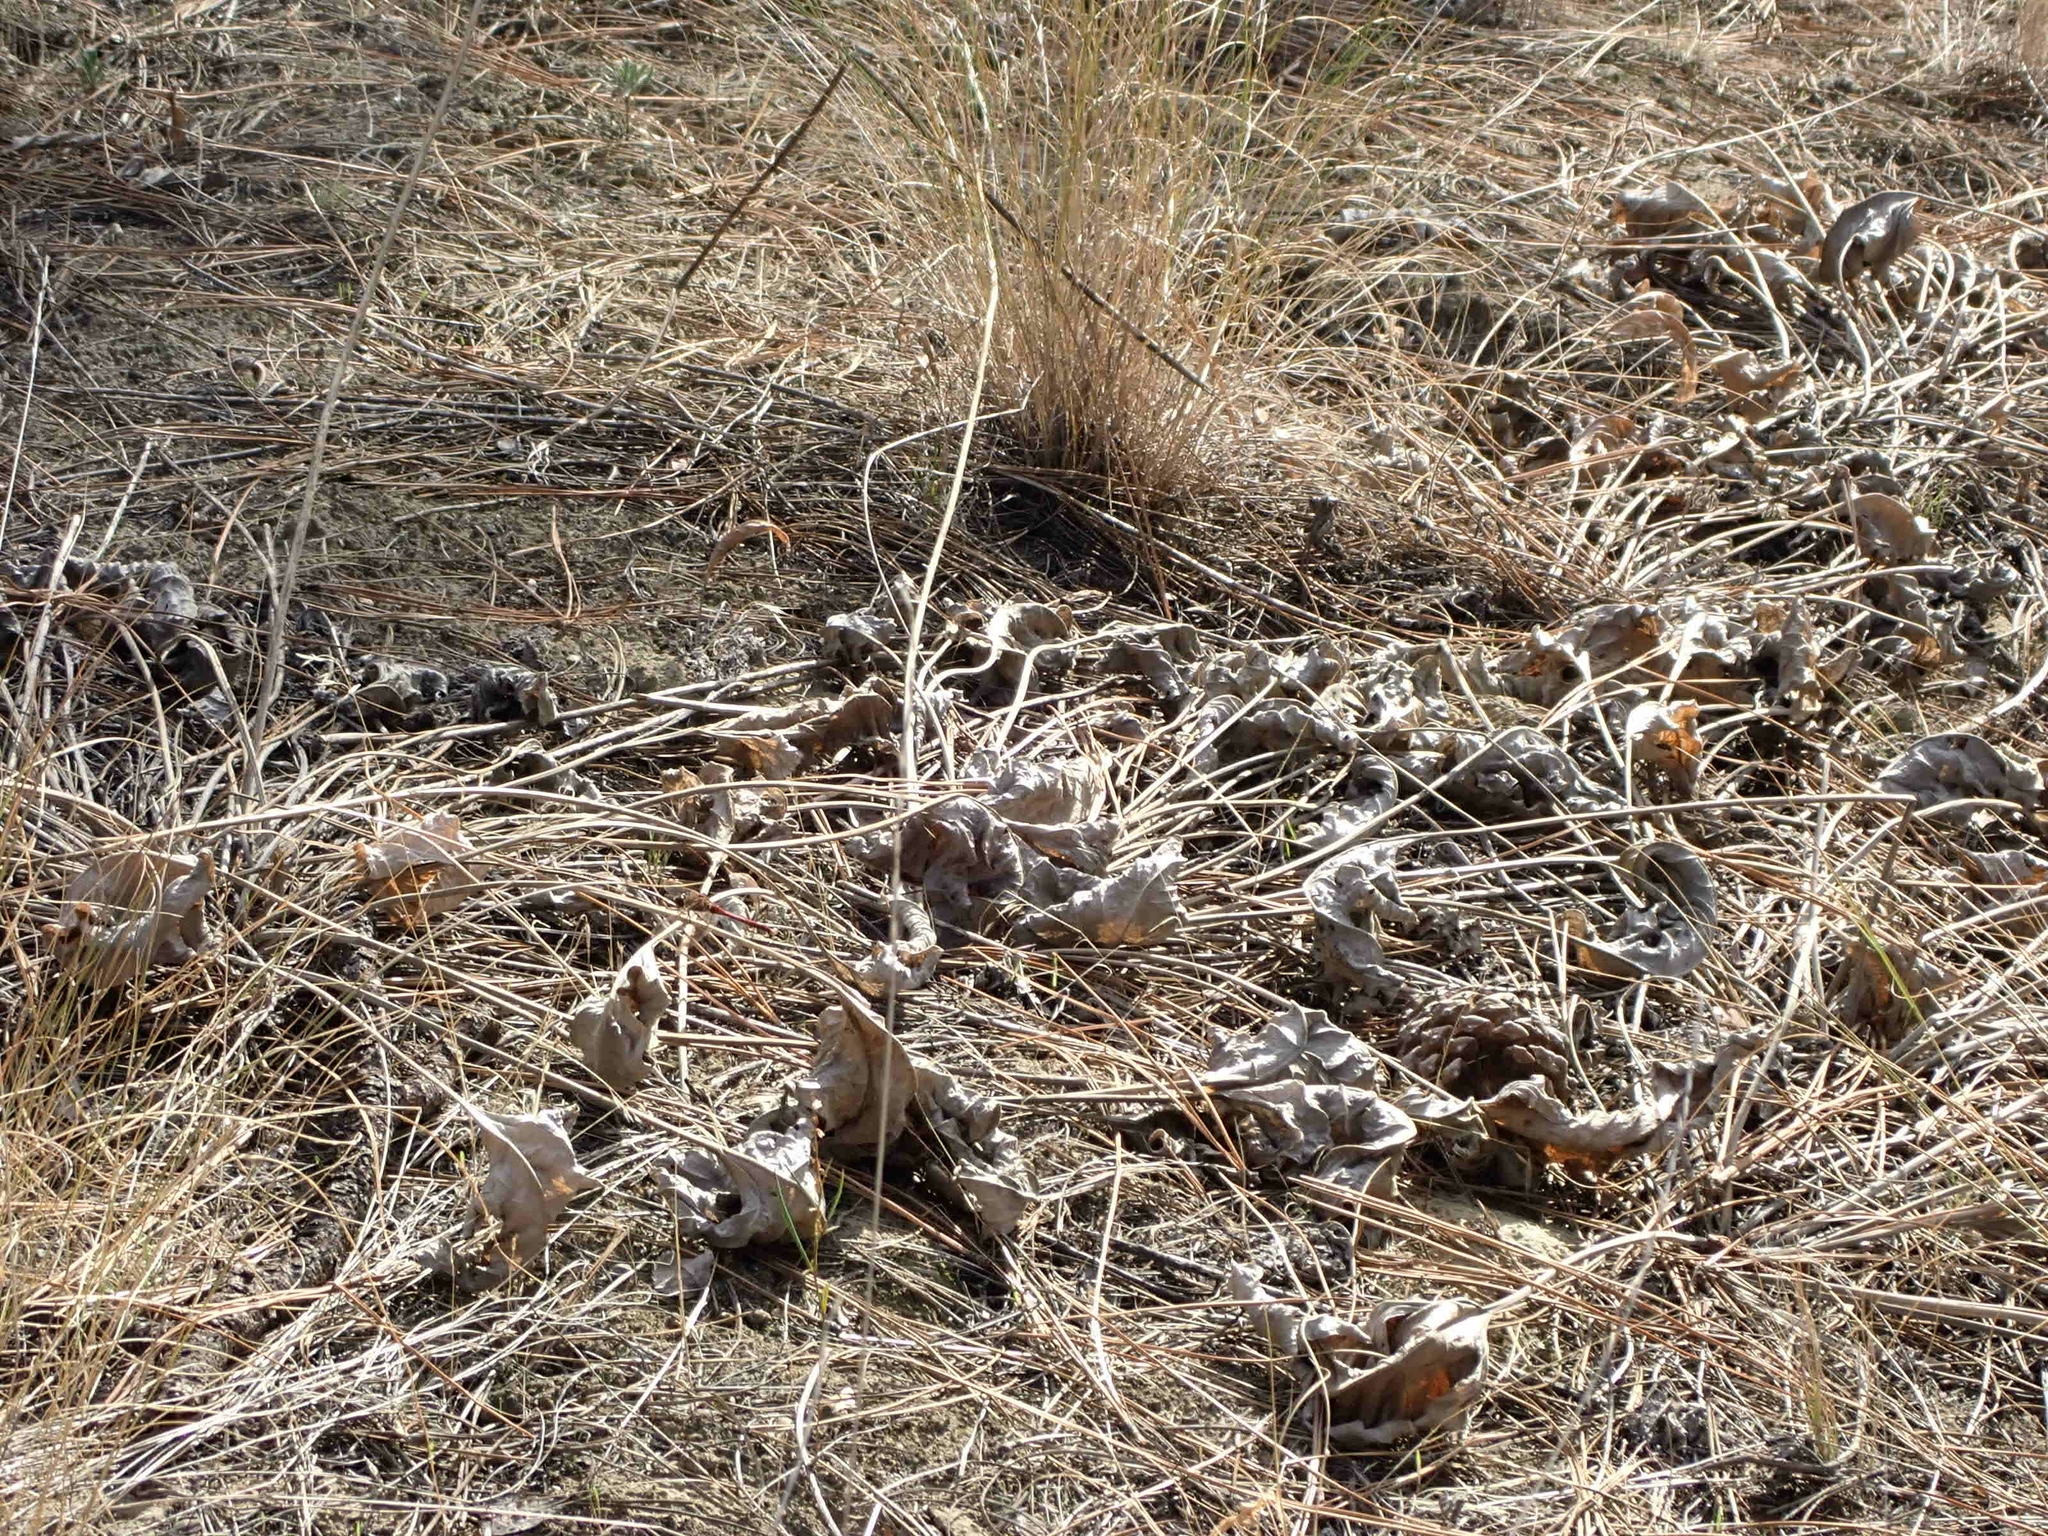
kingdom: Plantae
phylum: Tracheophyta
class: Magnoliopsida
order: Asterales
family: Asteraceae
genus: Wyethia
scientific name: Wyethia sagittata
